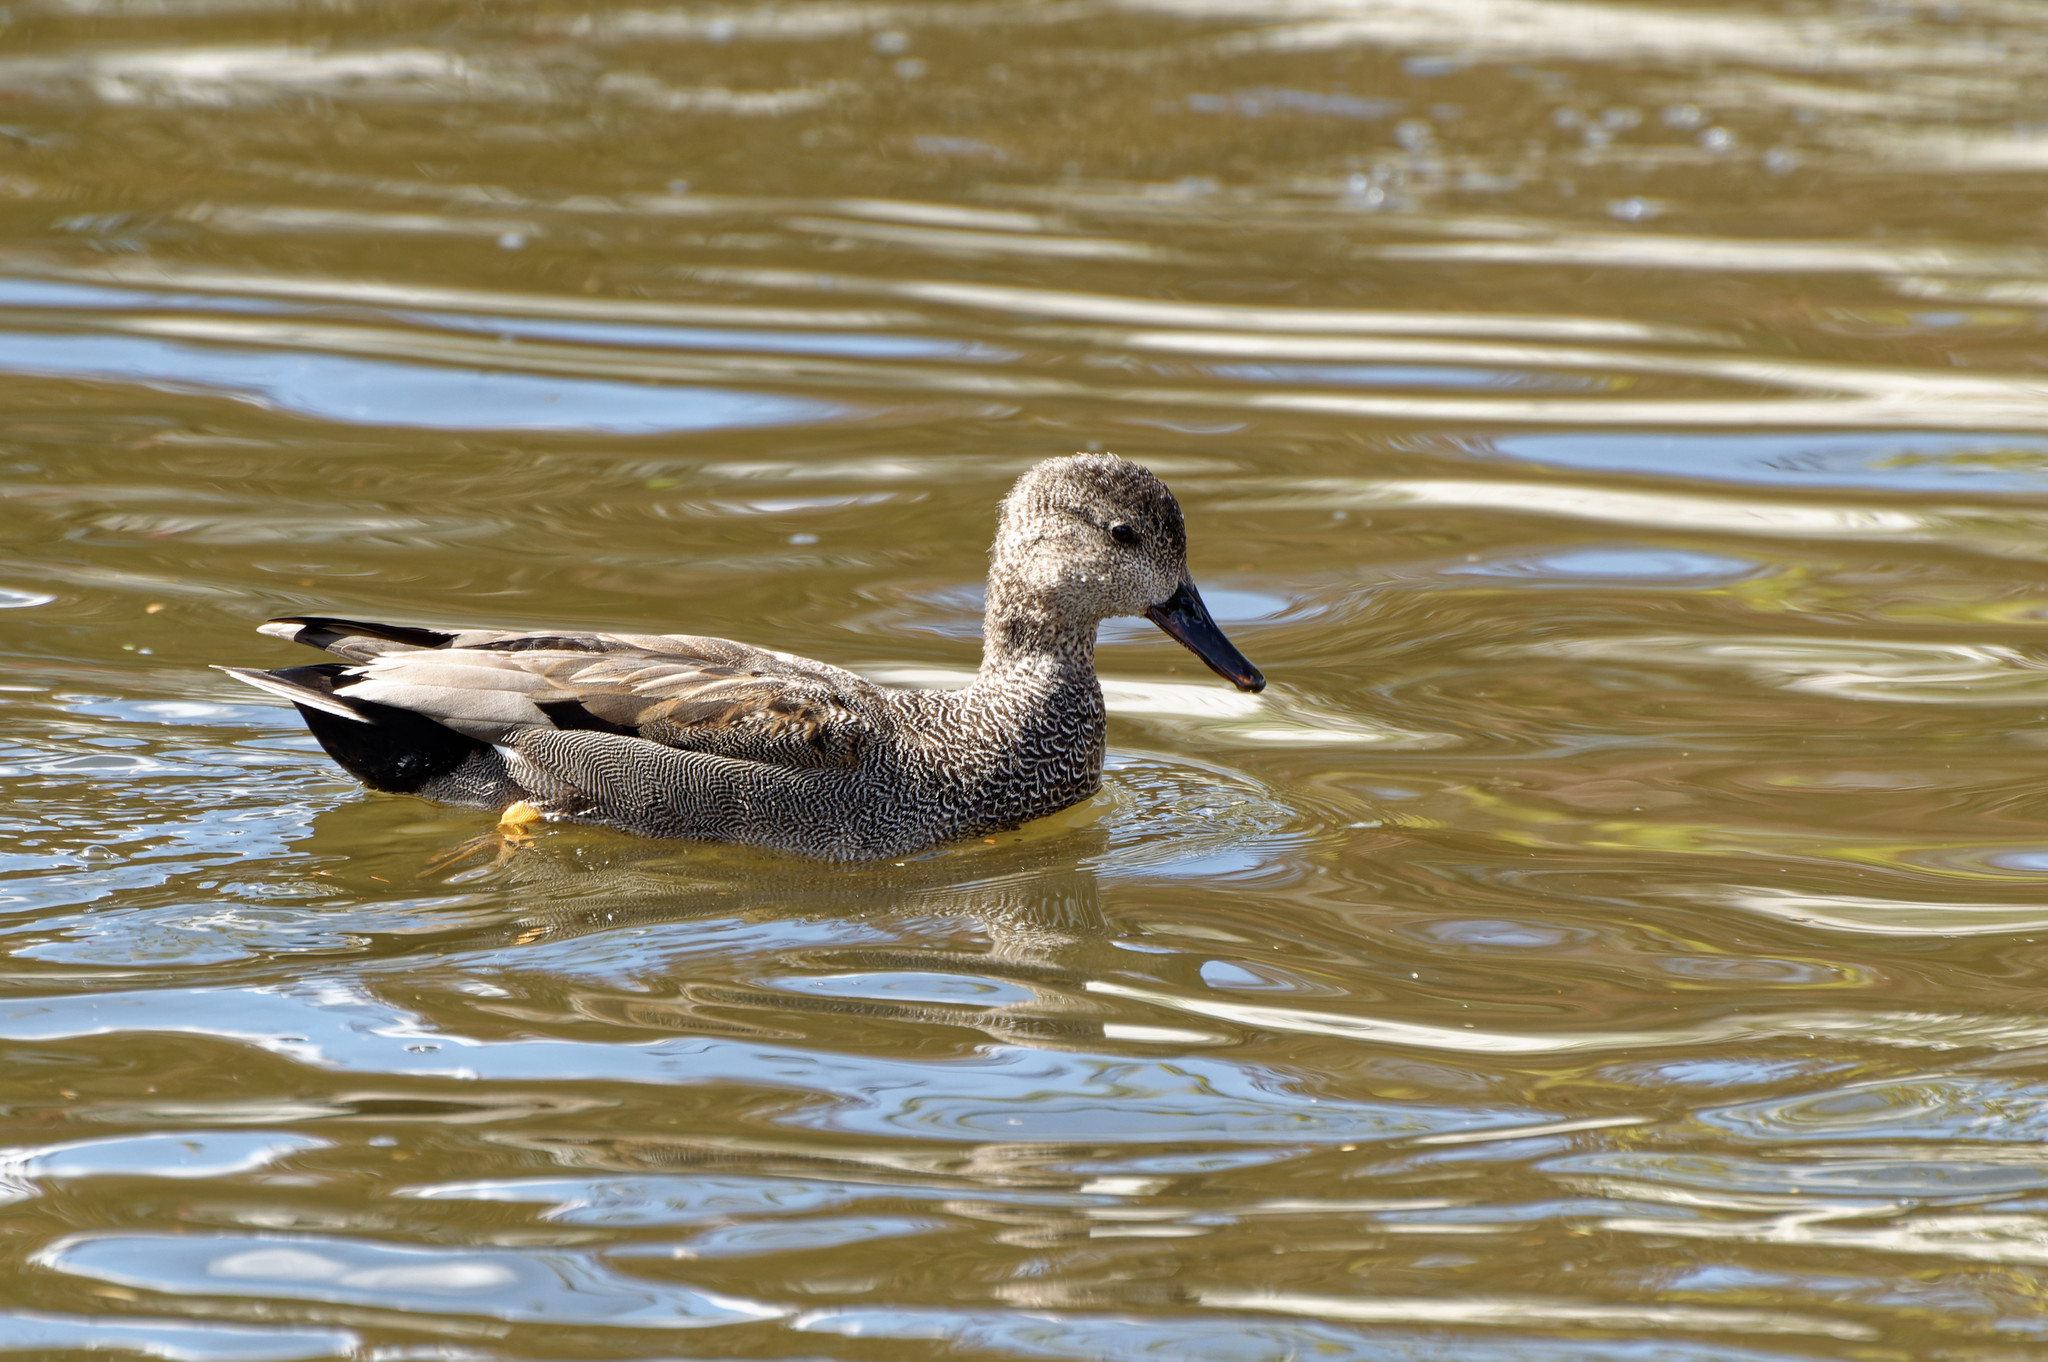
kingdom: Animalia
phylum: Chordata
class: Aves
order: Anseriformes
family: Anatidae
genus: Mareca
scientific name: Mareca strepera
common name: Gadwall
